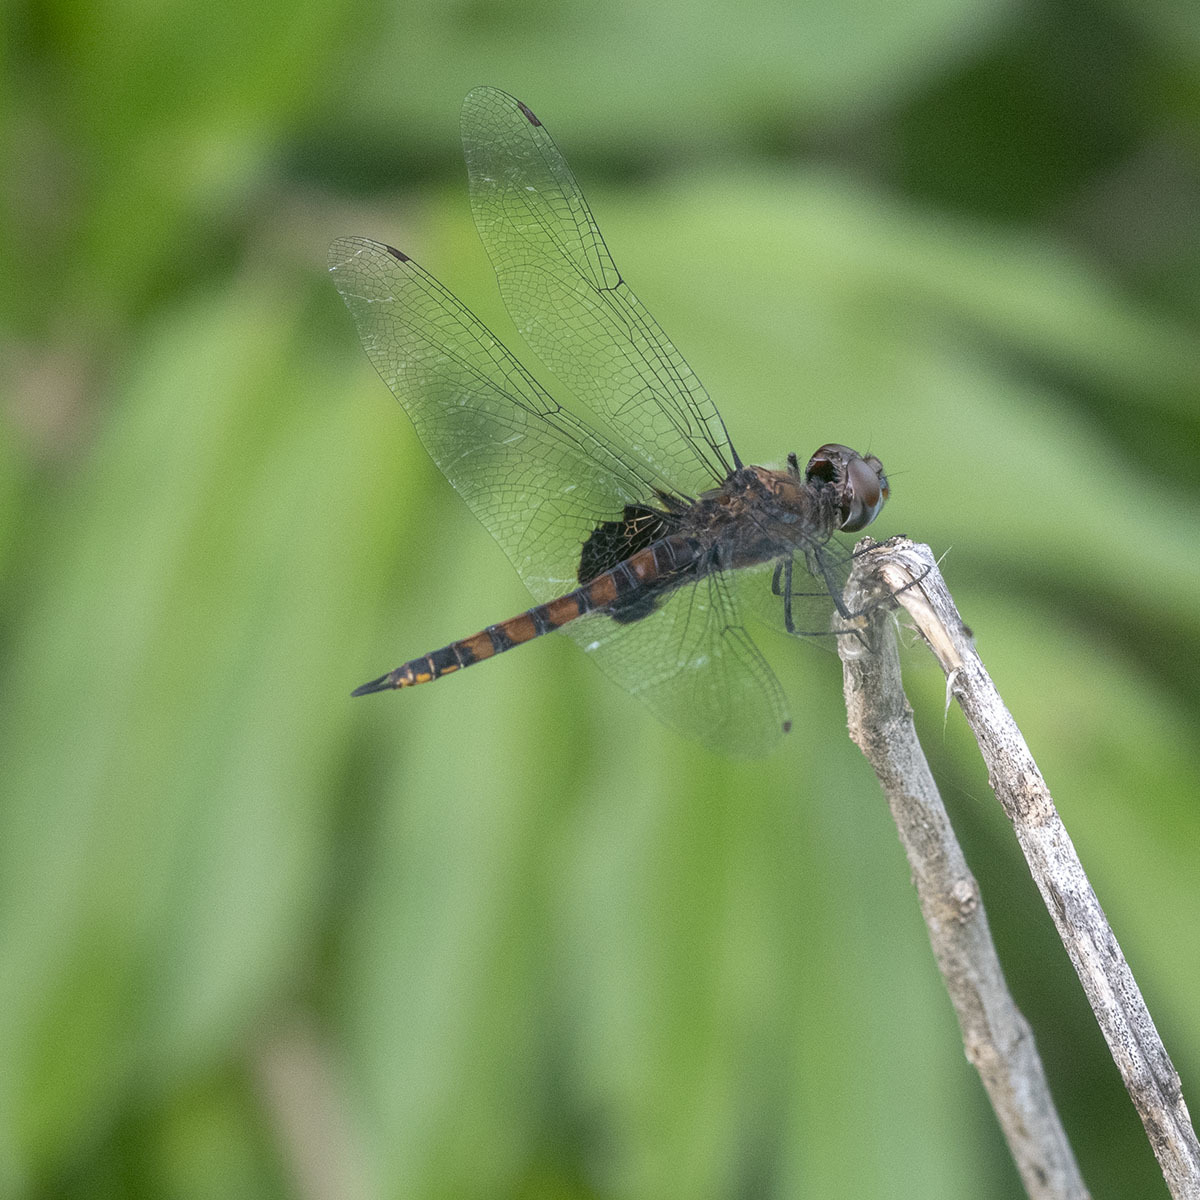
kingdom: Animalia
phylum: Arthropoda
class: Insecta
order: Odonata
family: Libellulidae
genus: Tramea
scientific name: Tramea limbata
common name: Ferruginous glider
